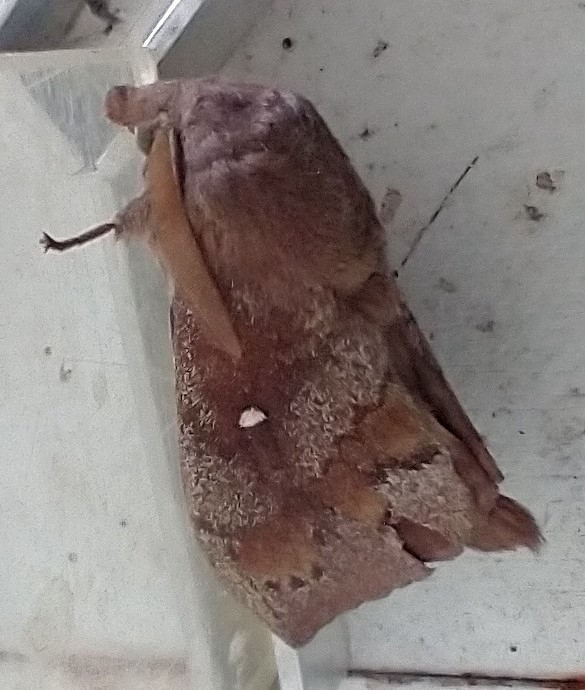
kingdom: Animalia
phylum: Arthropoda
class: Insecta
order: Lepidoptera
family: Lasiocampidae
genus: Dendrolimus
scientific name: Dendrolimus pini
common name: Pine-tree lappet
